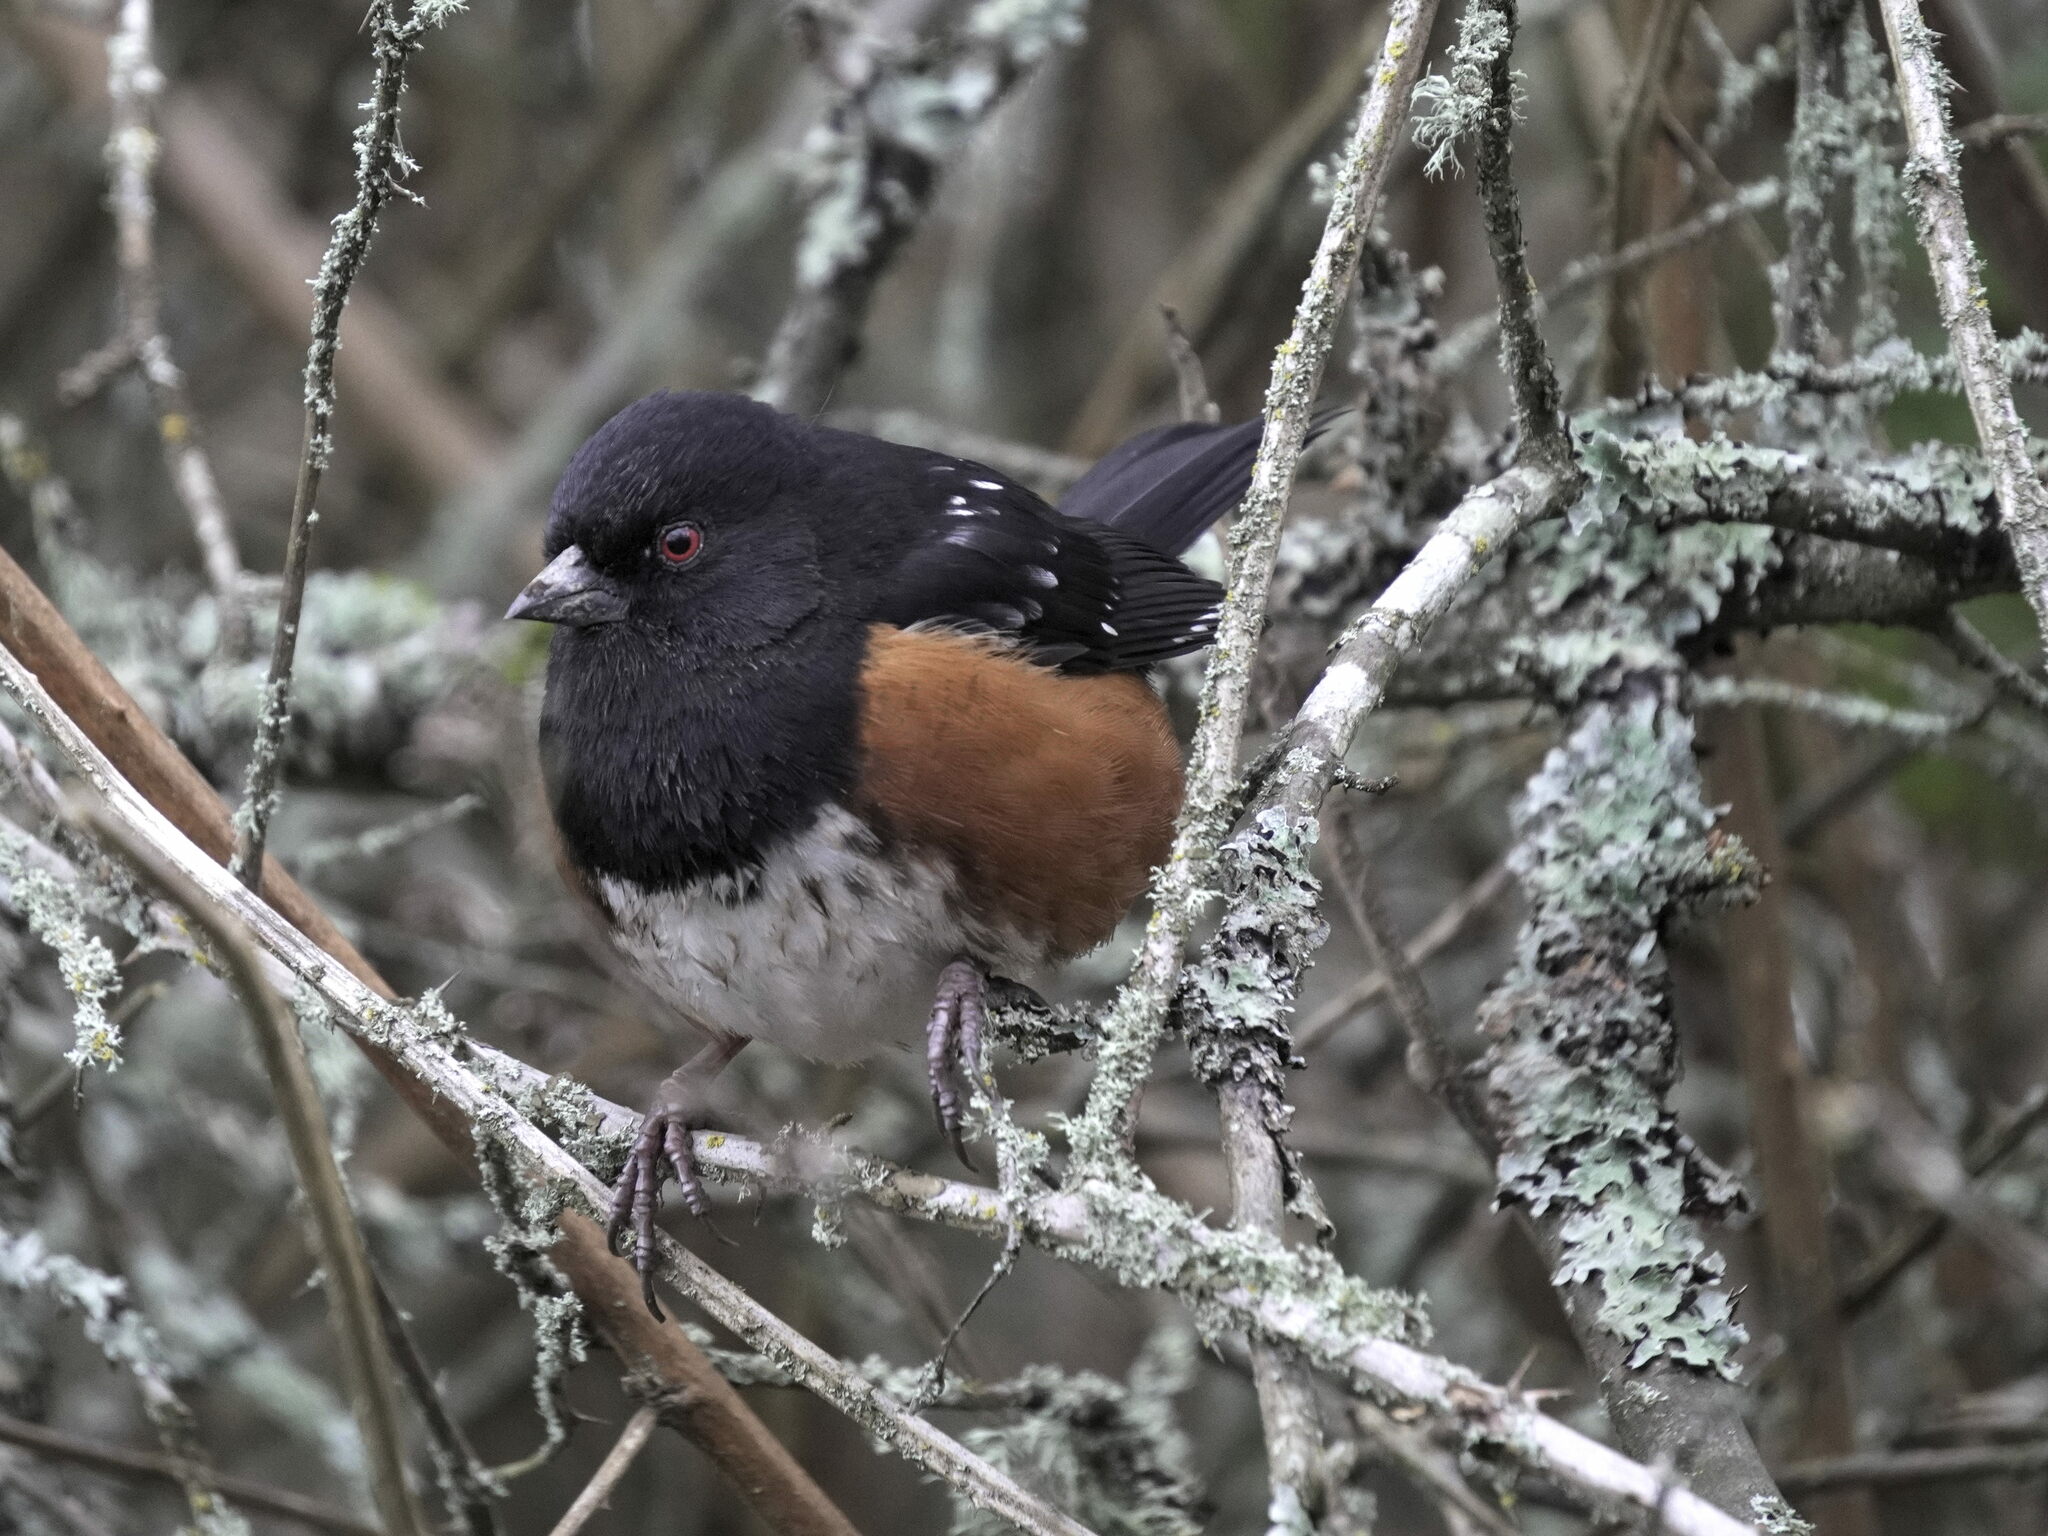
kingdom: Animalia
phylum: Chordata
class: Aves
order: Passeriformes
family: Passerellidae
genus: Pipilo
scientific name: Pipilo maculatus
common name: Spotted towhee
